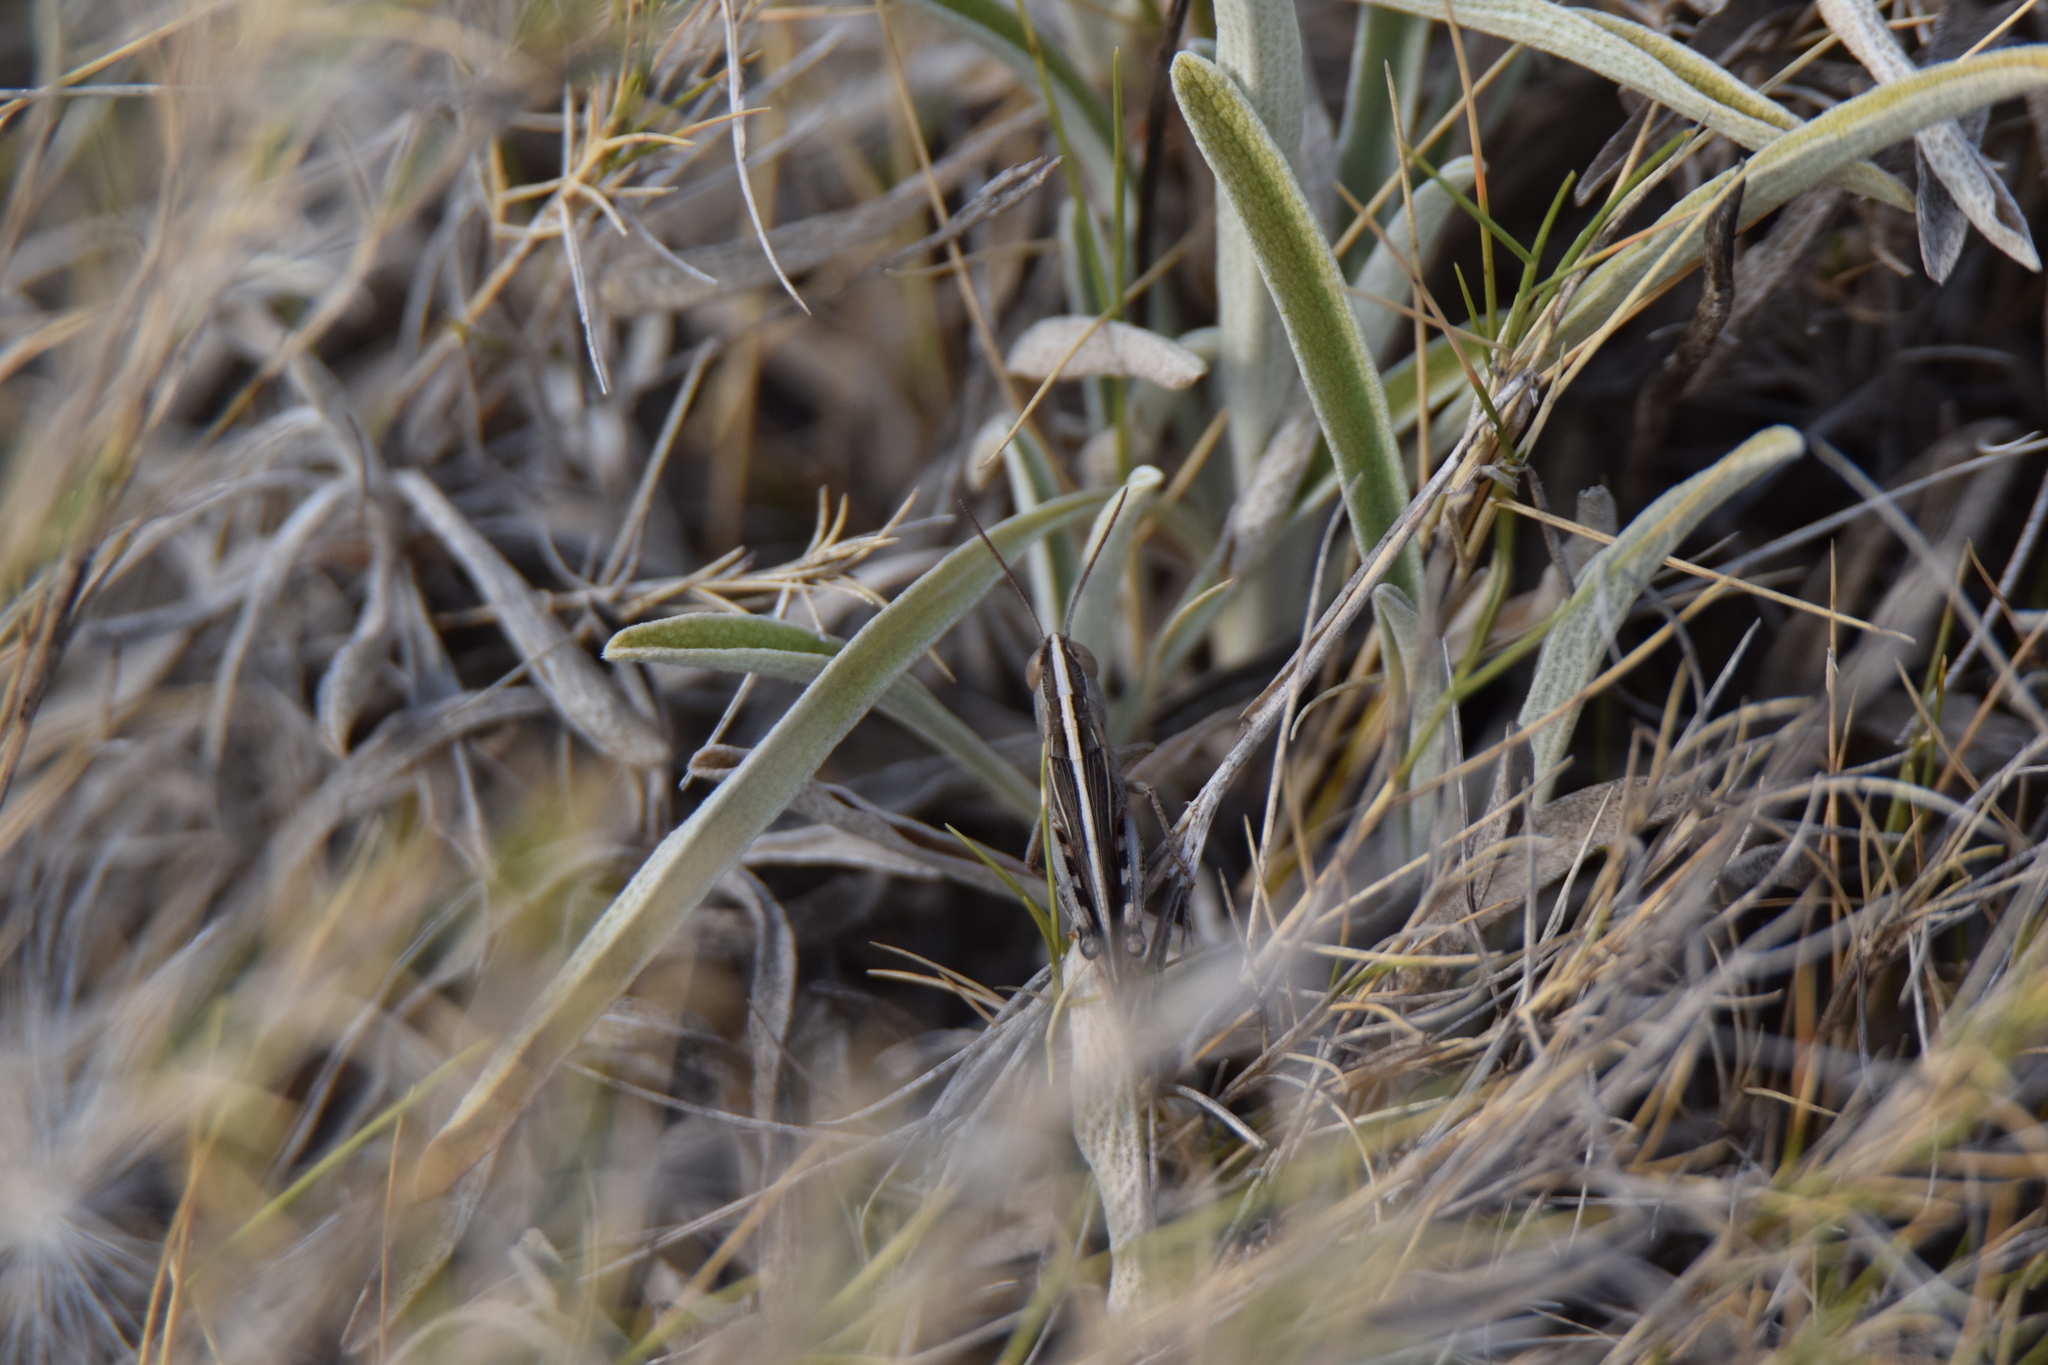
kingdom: Animalia
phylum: Arthropoda
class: Insecta
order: Orthoptera
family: Acrididae
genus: Ramburiella
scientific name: Ramburiella hispanica
